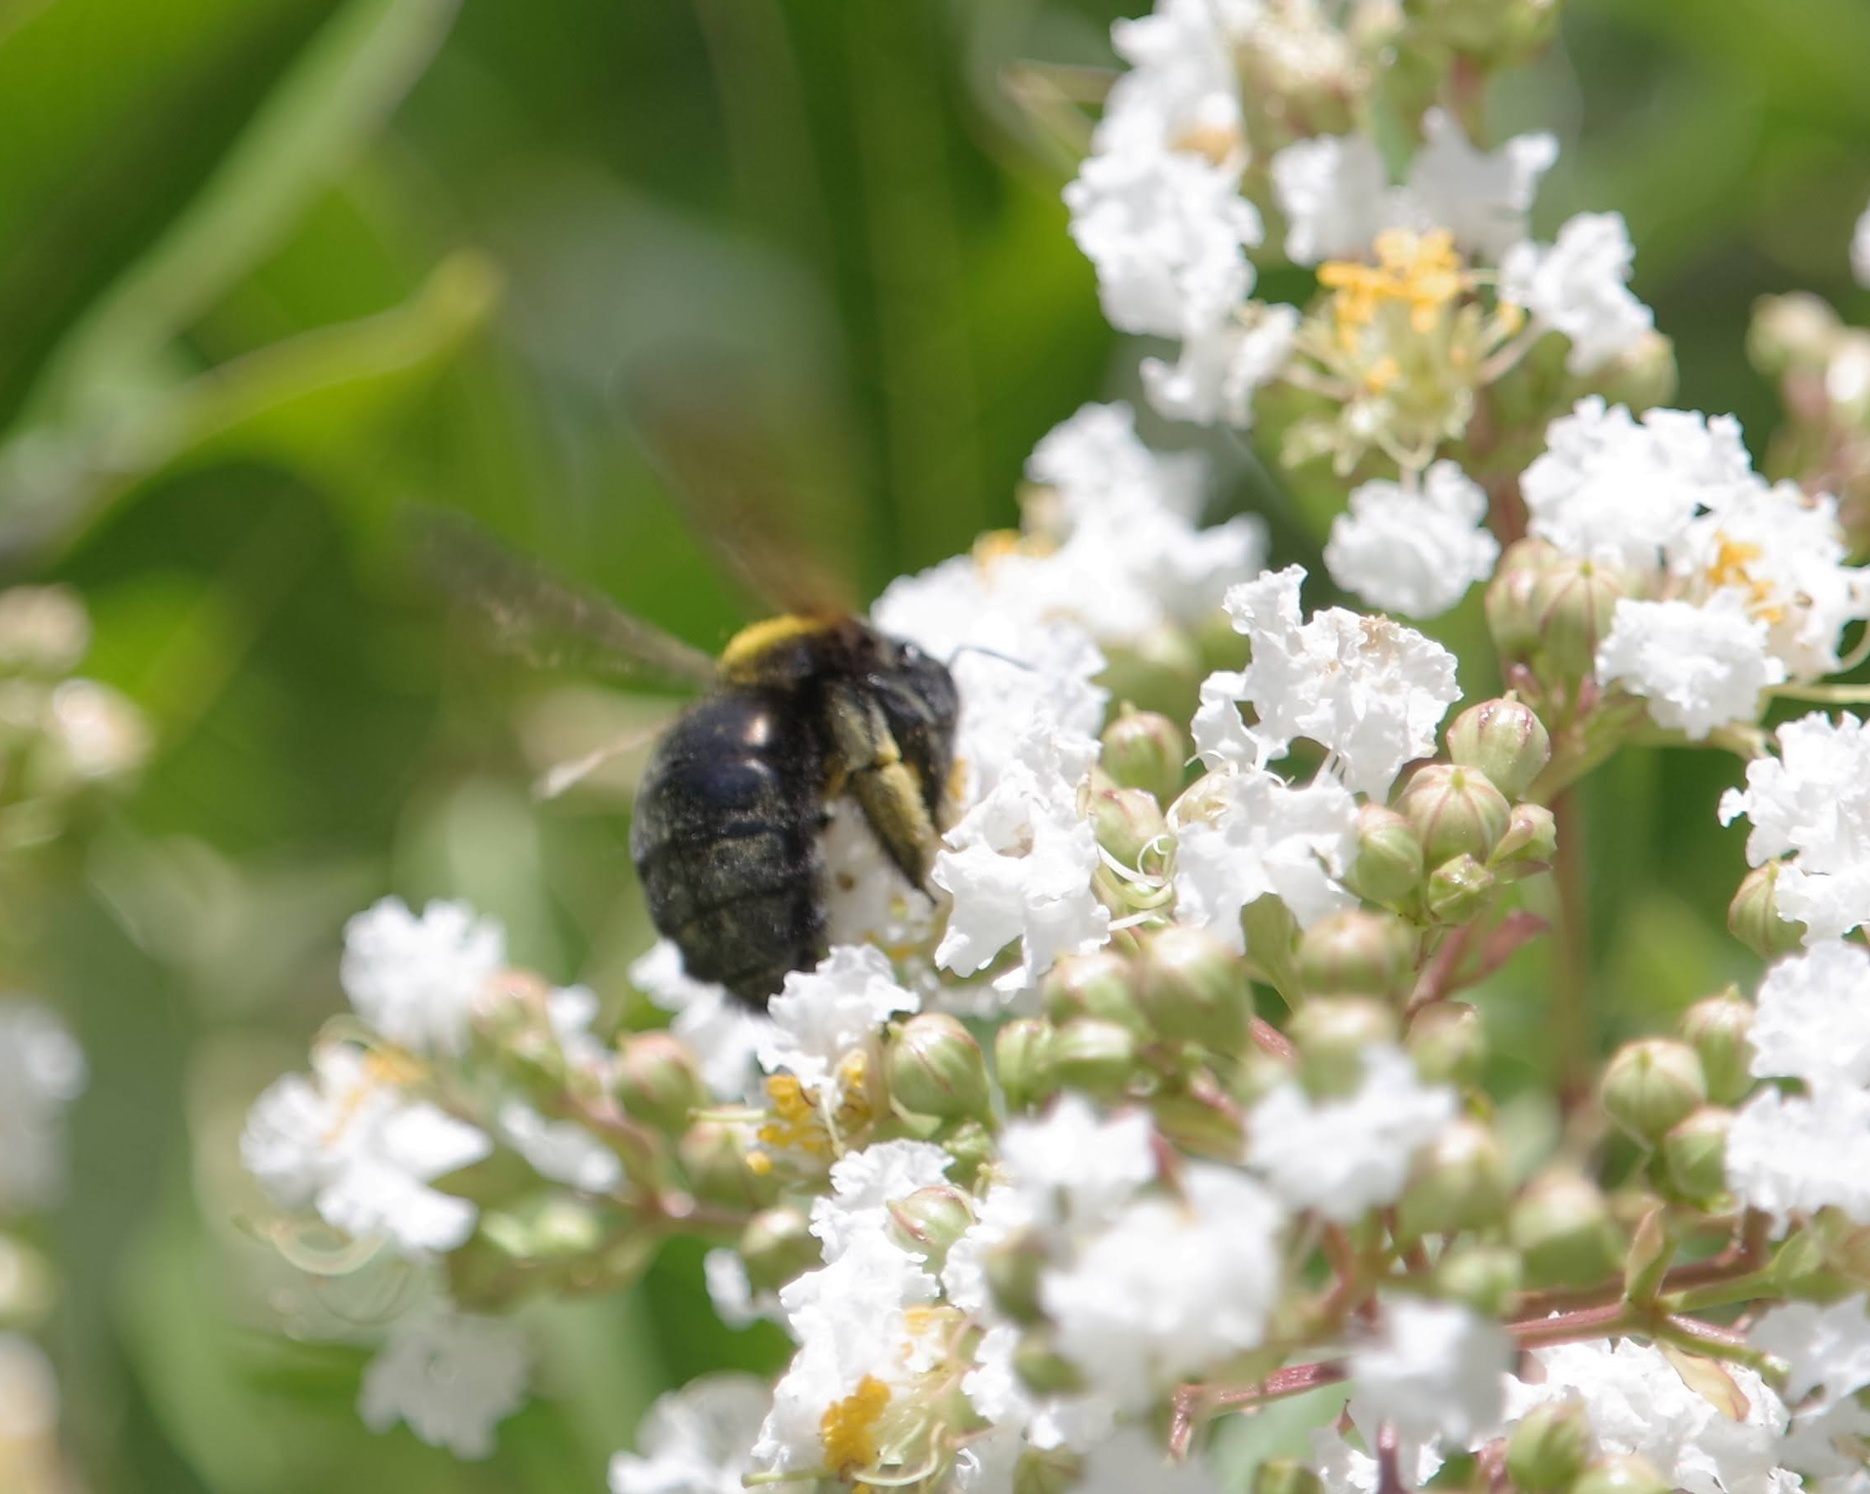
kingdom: Animalia
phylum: Arthropoda
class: Insecta
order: Hymenoptera
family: Apidae
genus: Xylocopa
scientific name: Xylocopa sonorina
